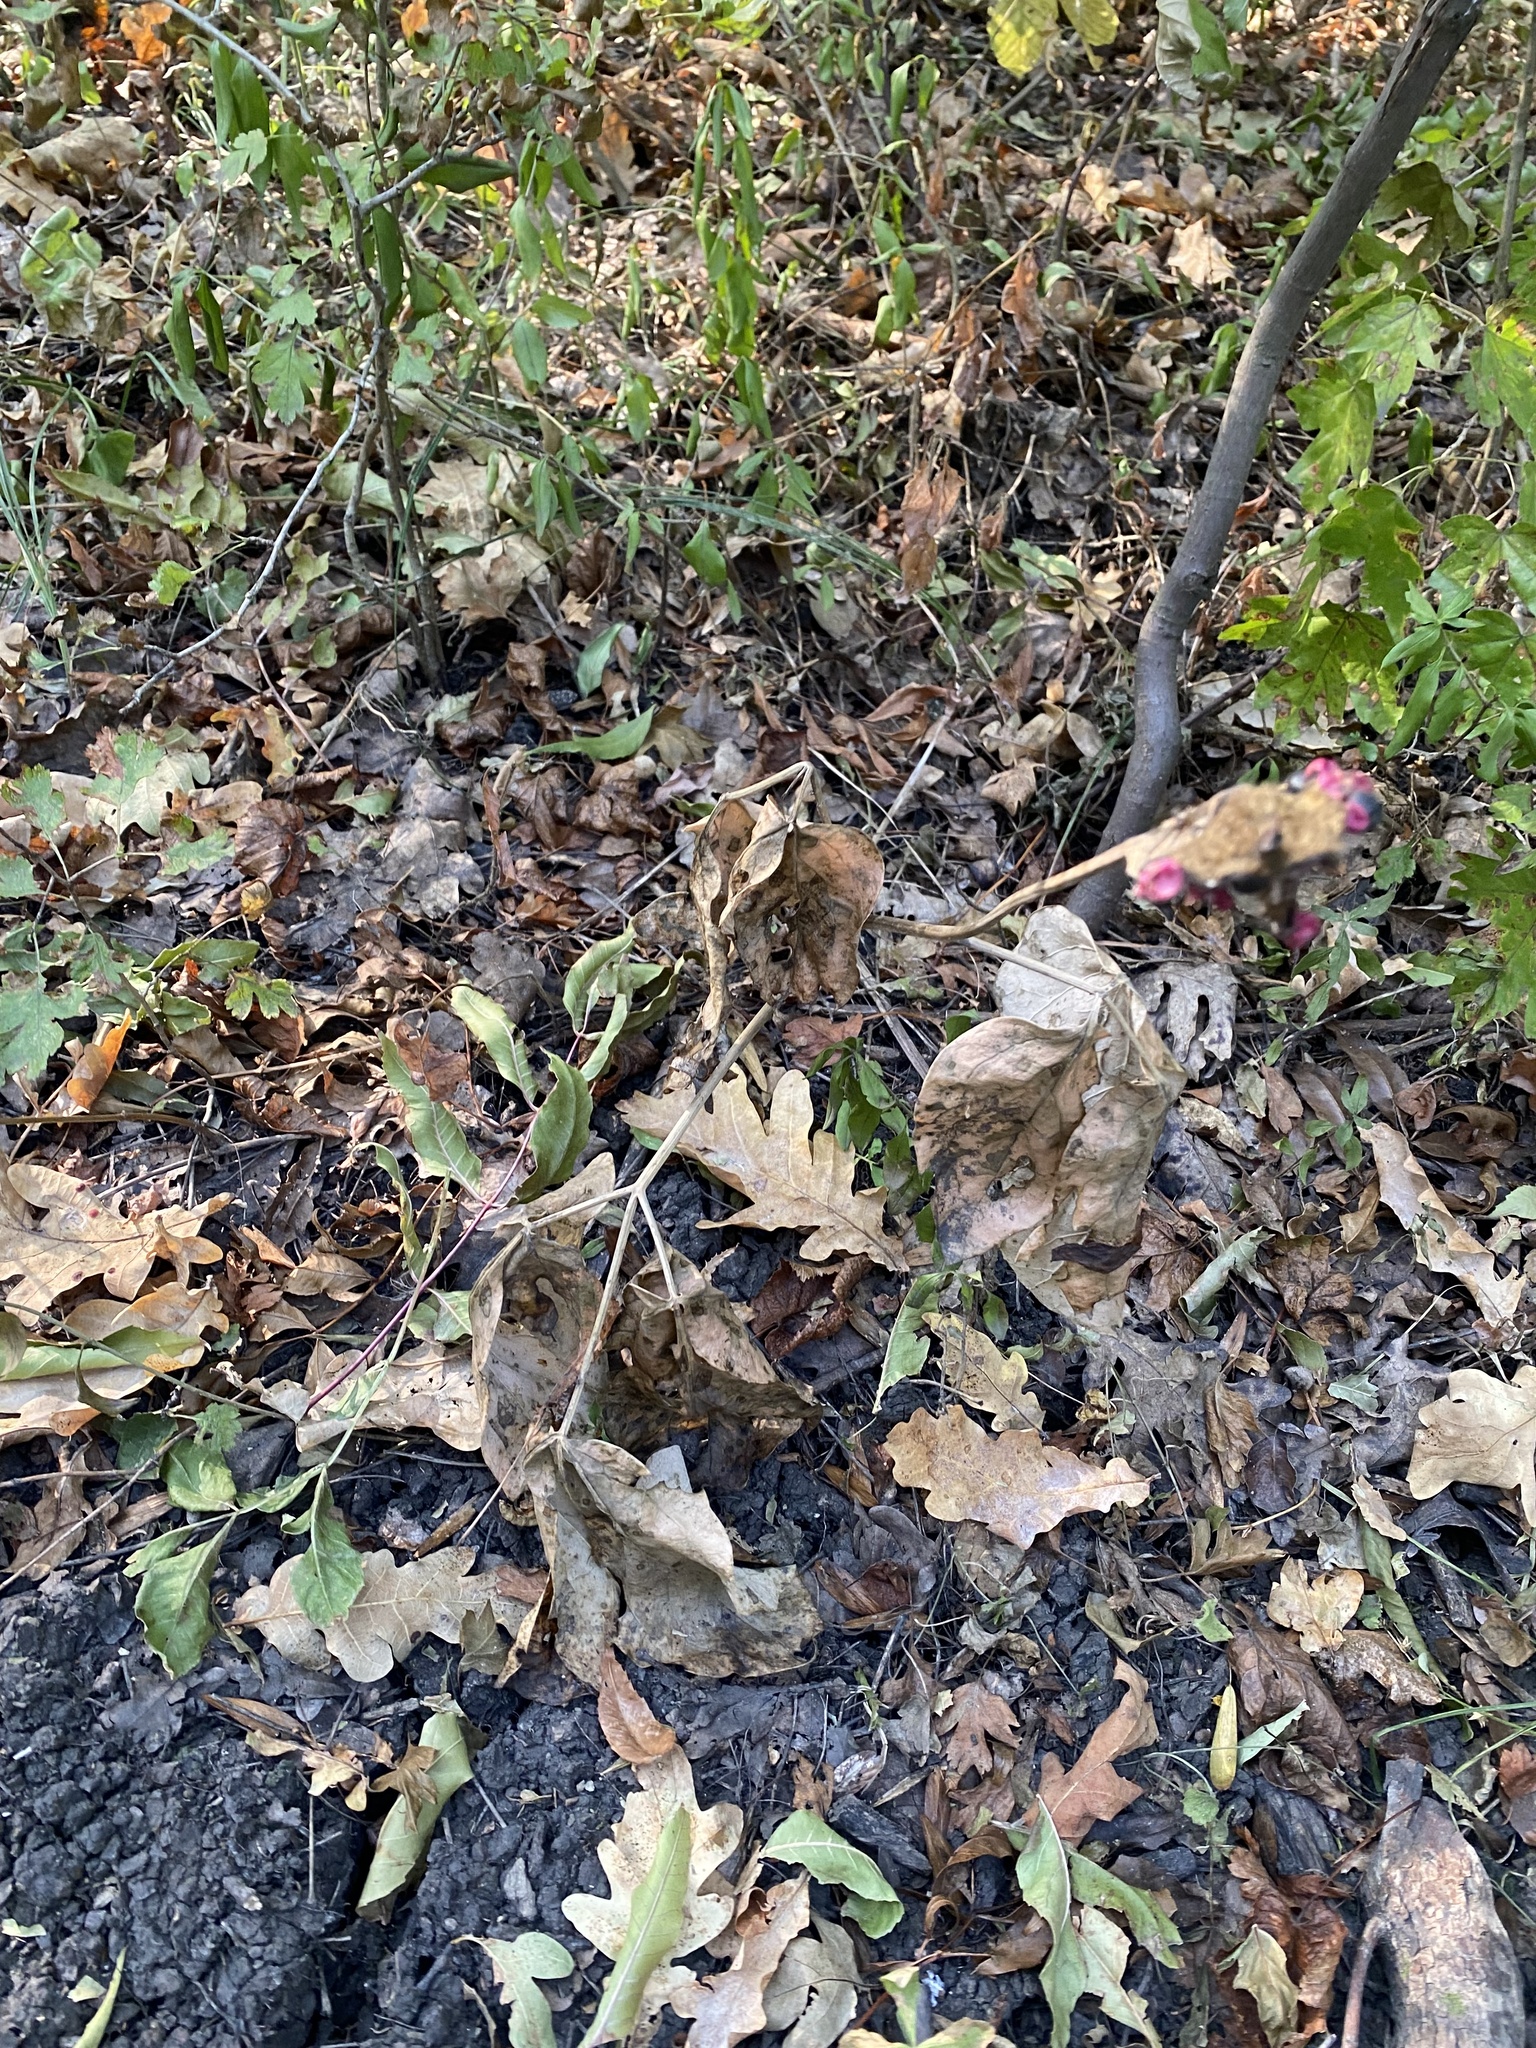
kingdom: Plantae
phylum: Tracheophyta
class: Magnoliopsida
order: Saxifragales
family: Paeoniaceae
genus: Paeonia
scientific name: Paeonia caucasica
